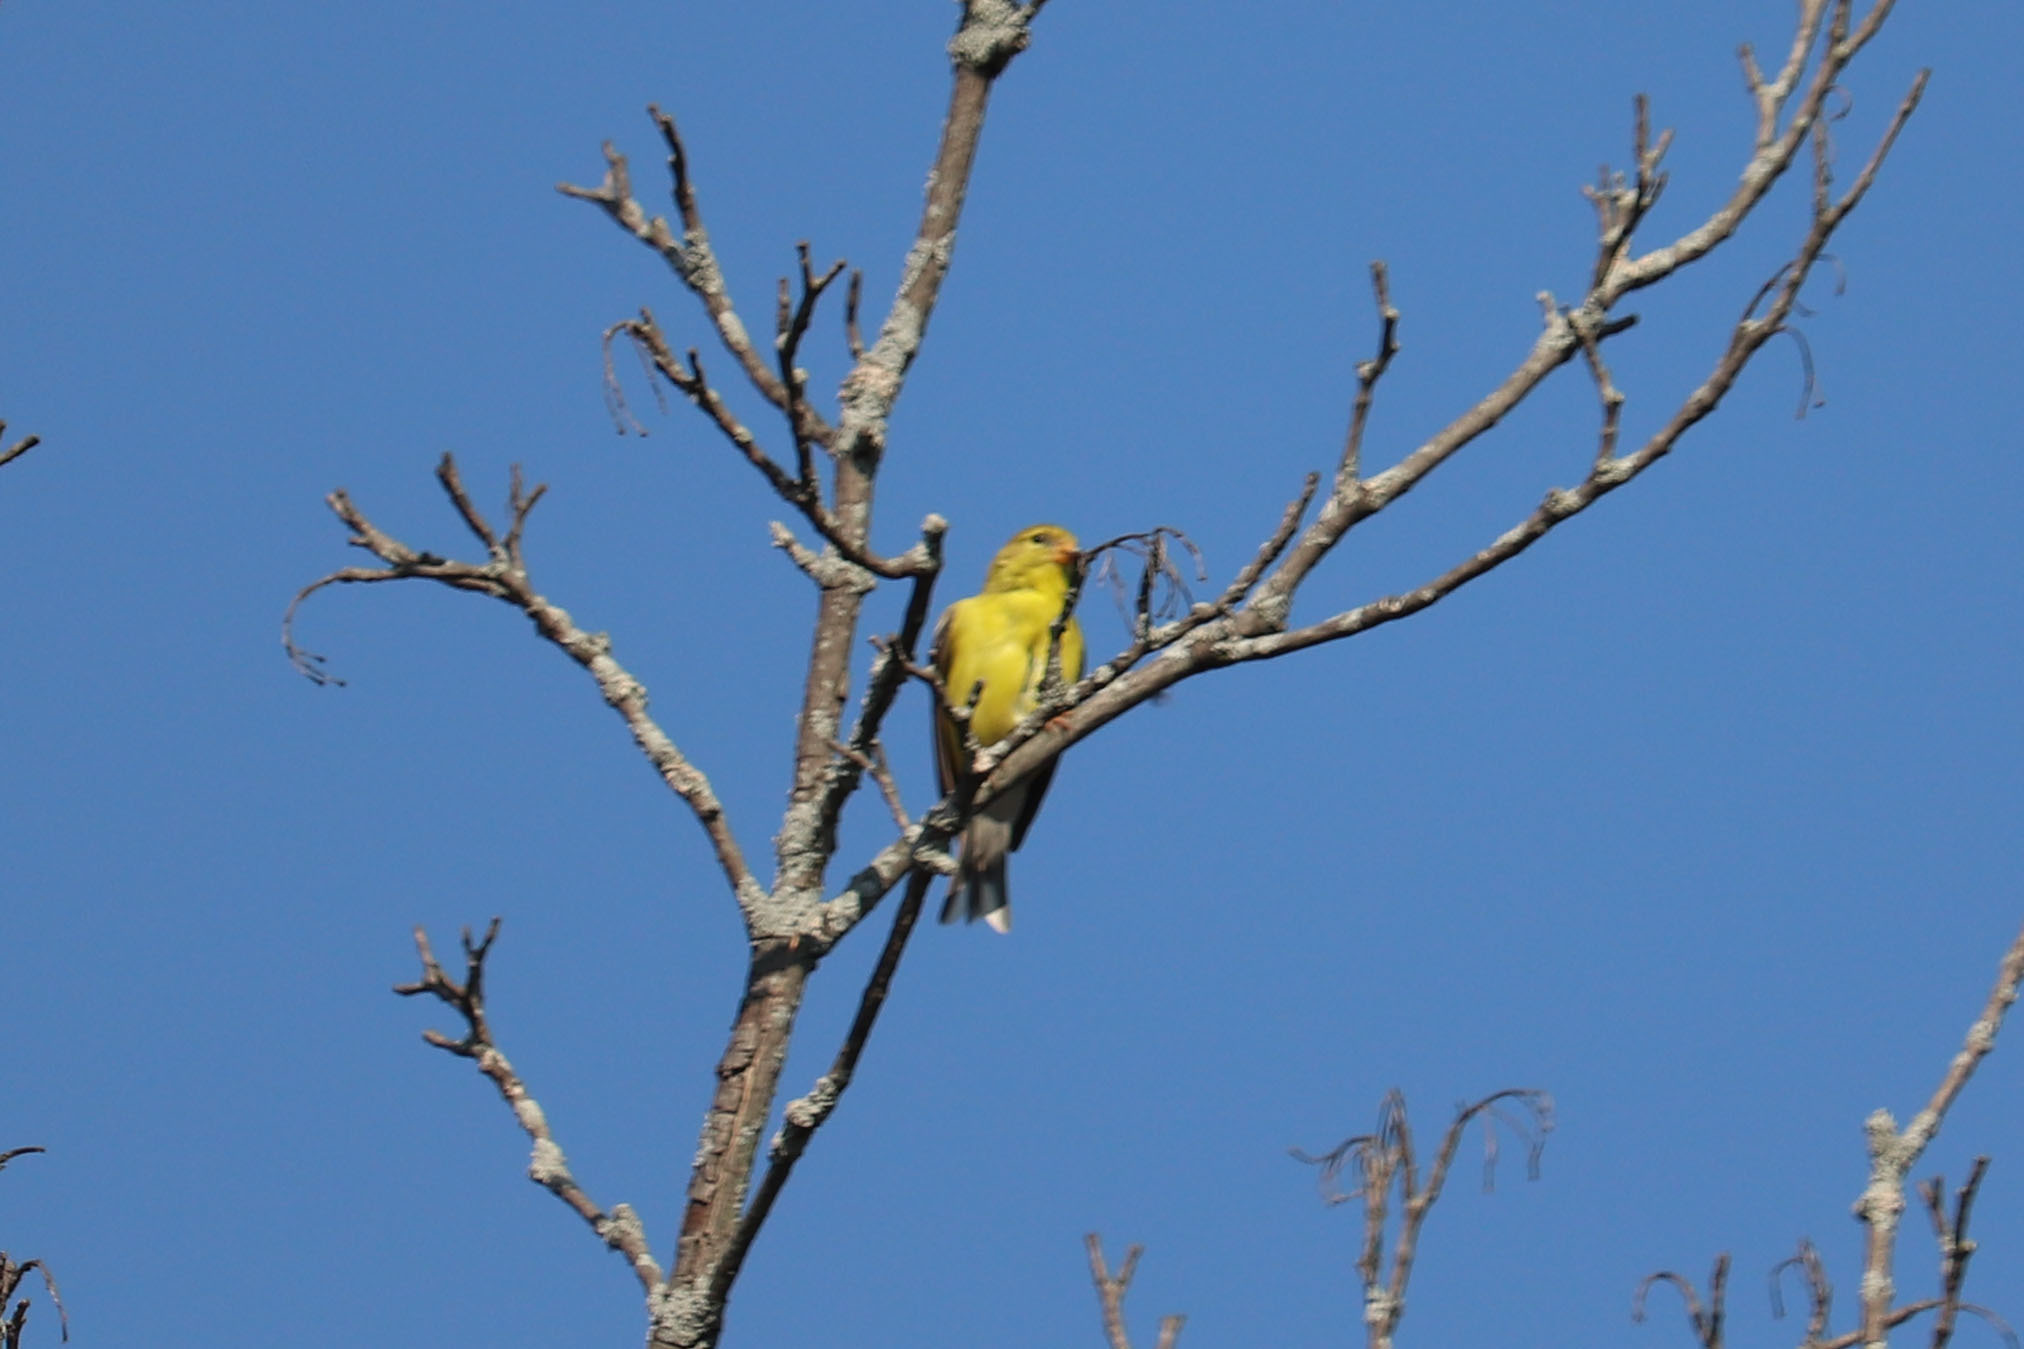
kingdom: Animalia
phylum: Chordata
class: Aves
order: Passeriformes
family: Fringillidae
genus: Spinus
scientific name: Spinus tristis
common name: American goldfinch
